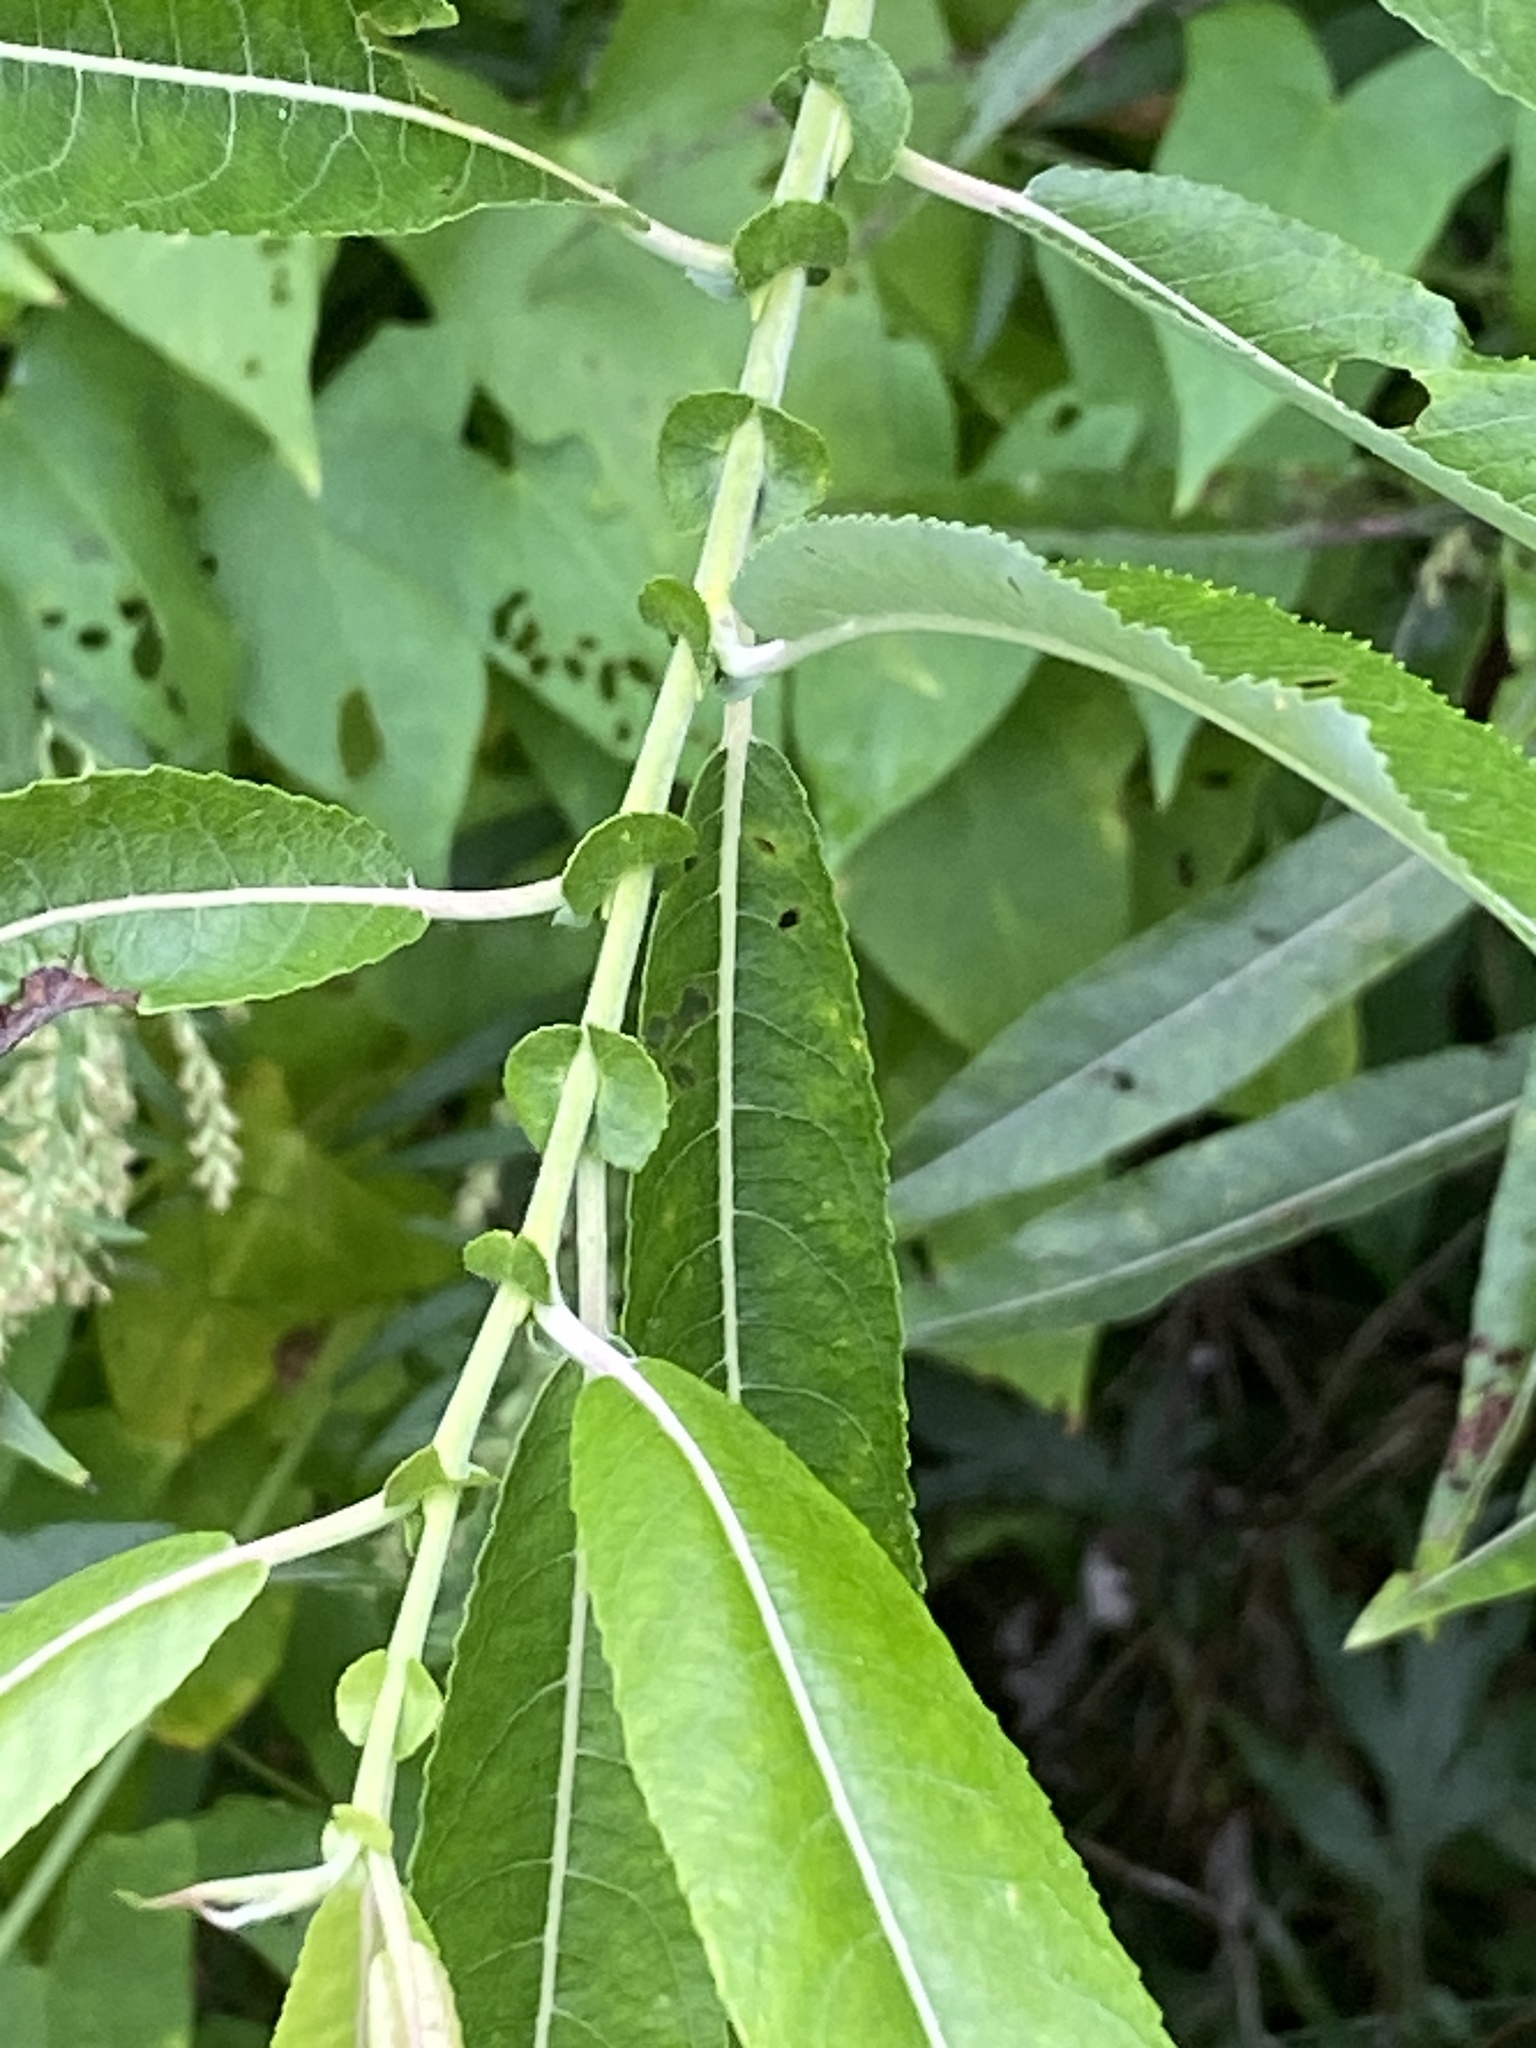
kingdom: Plantae
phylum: Tracheophyta
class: Magnoliopsida
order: Malpighiales
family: Salicaceae
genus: Salix
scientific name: Salix eriocephala
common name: Heart-leaved willow
